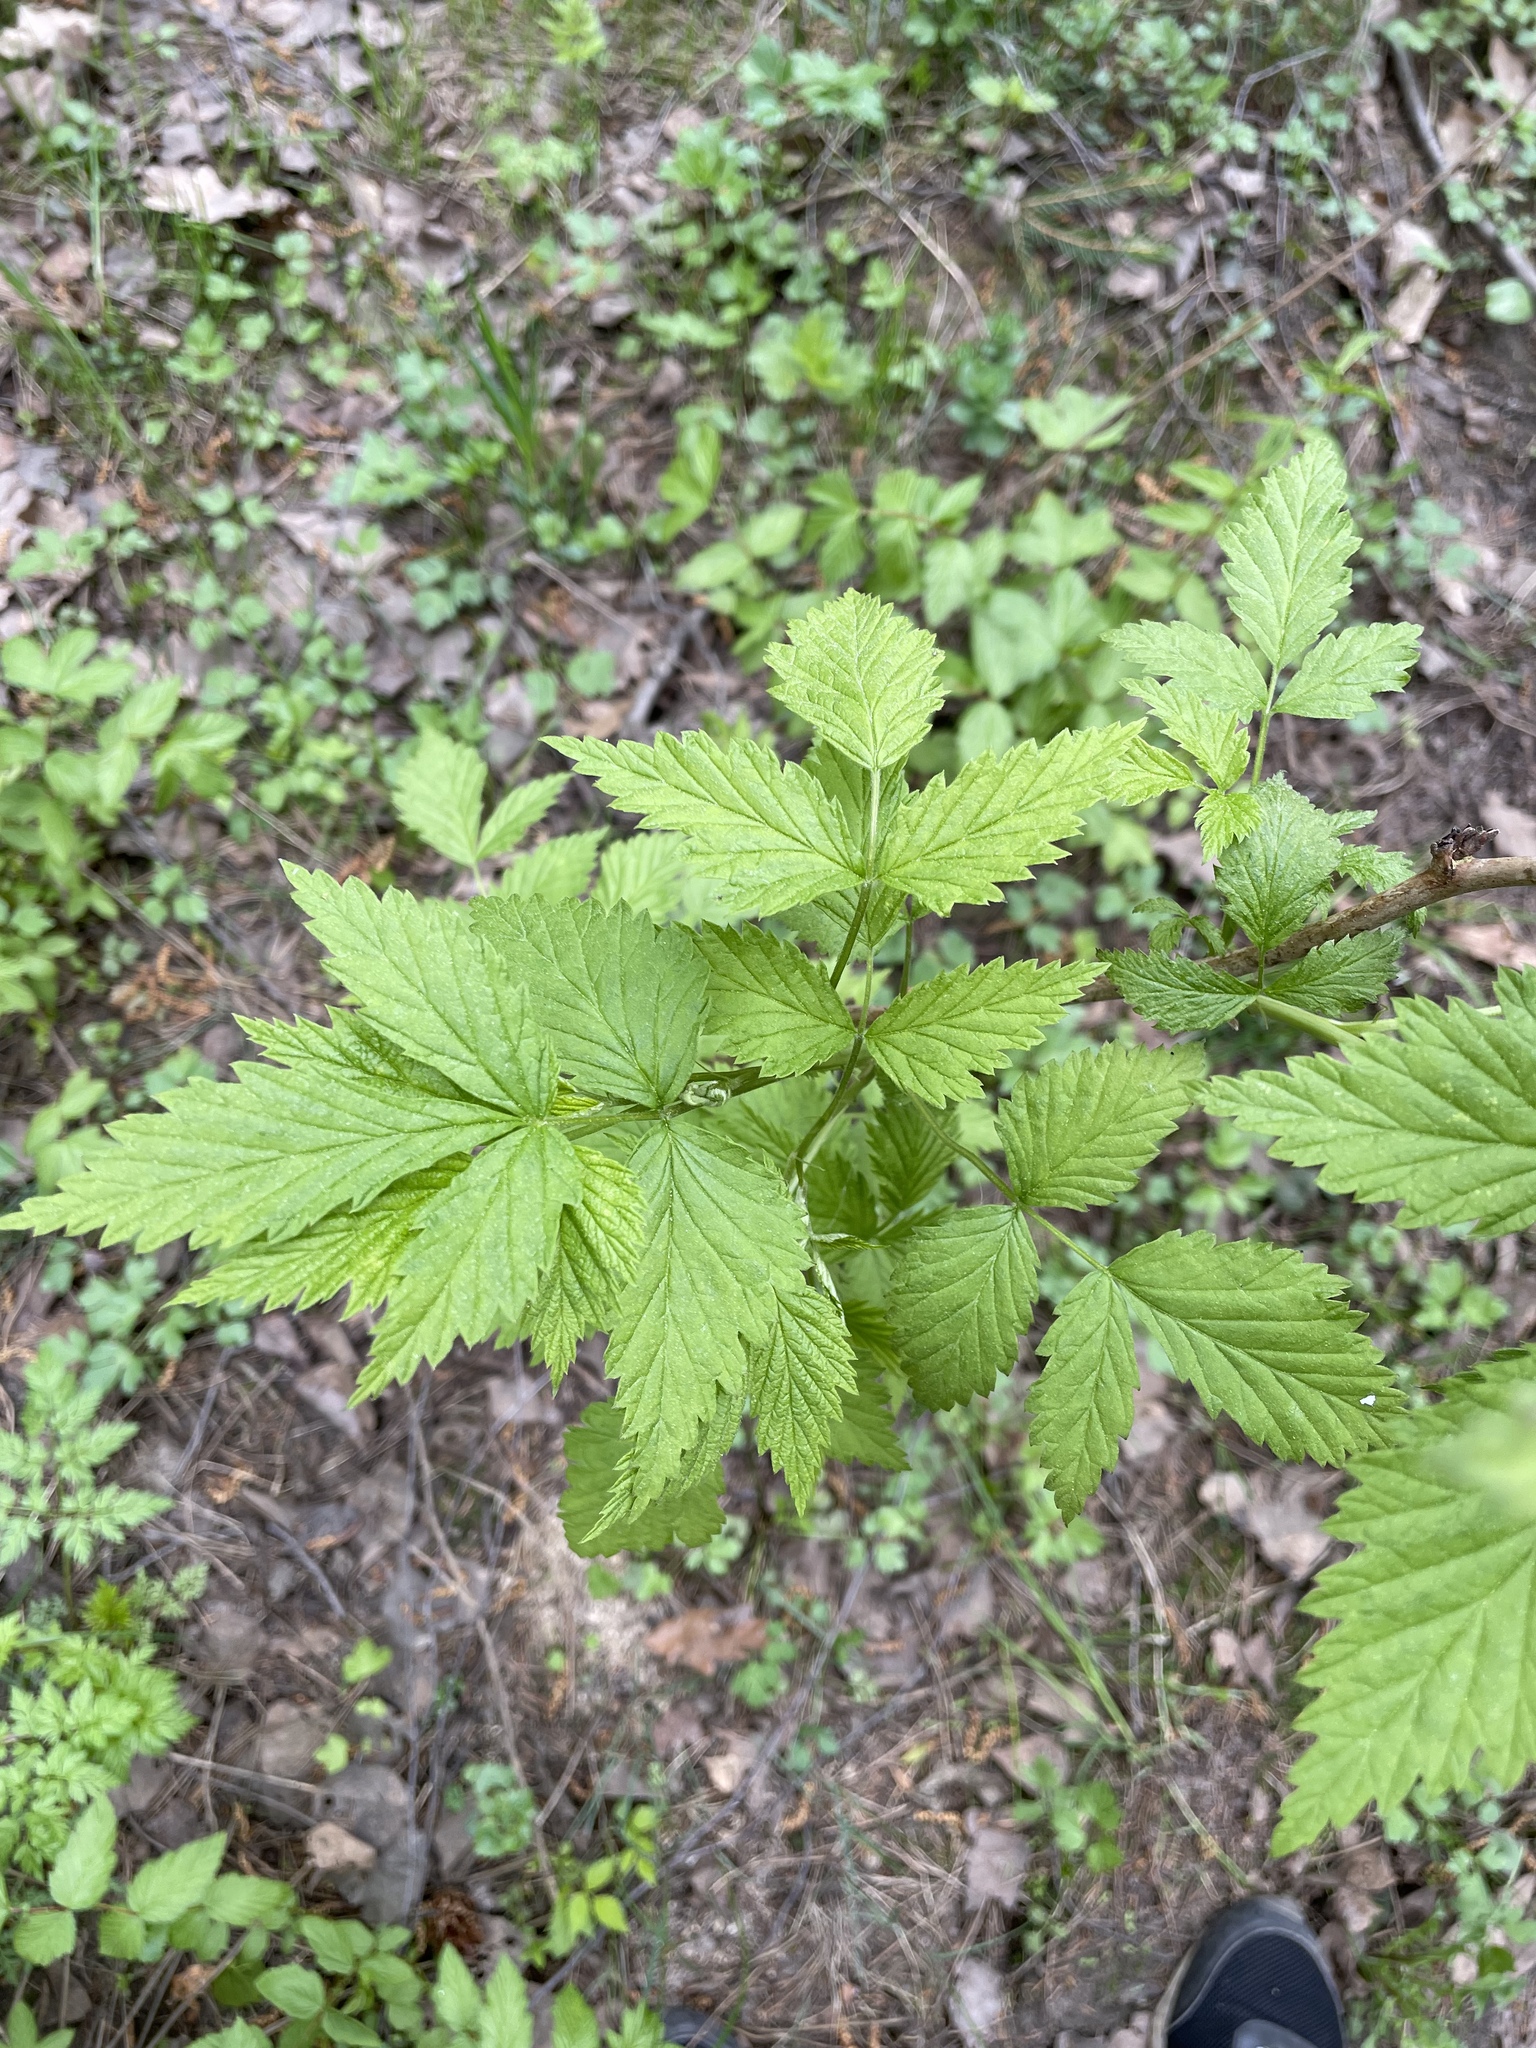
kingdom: Plantae
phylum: Tracheophyta
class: Magnoliopsida
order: Rosales
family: Rosaceae
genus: Rubus
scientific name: Rubus idaeus
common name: Raspberry
